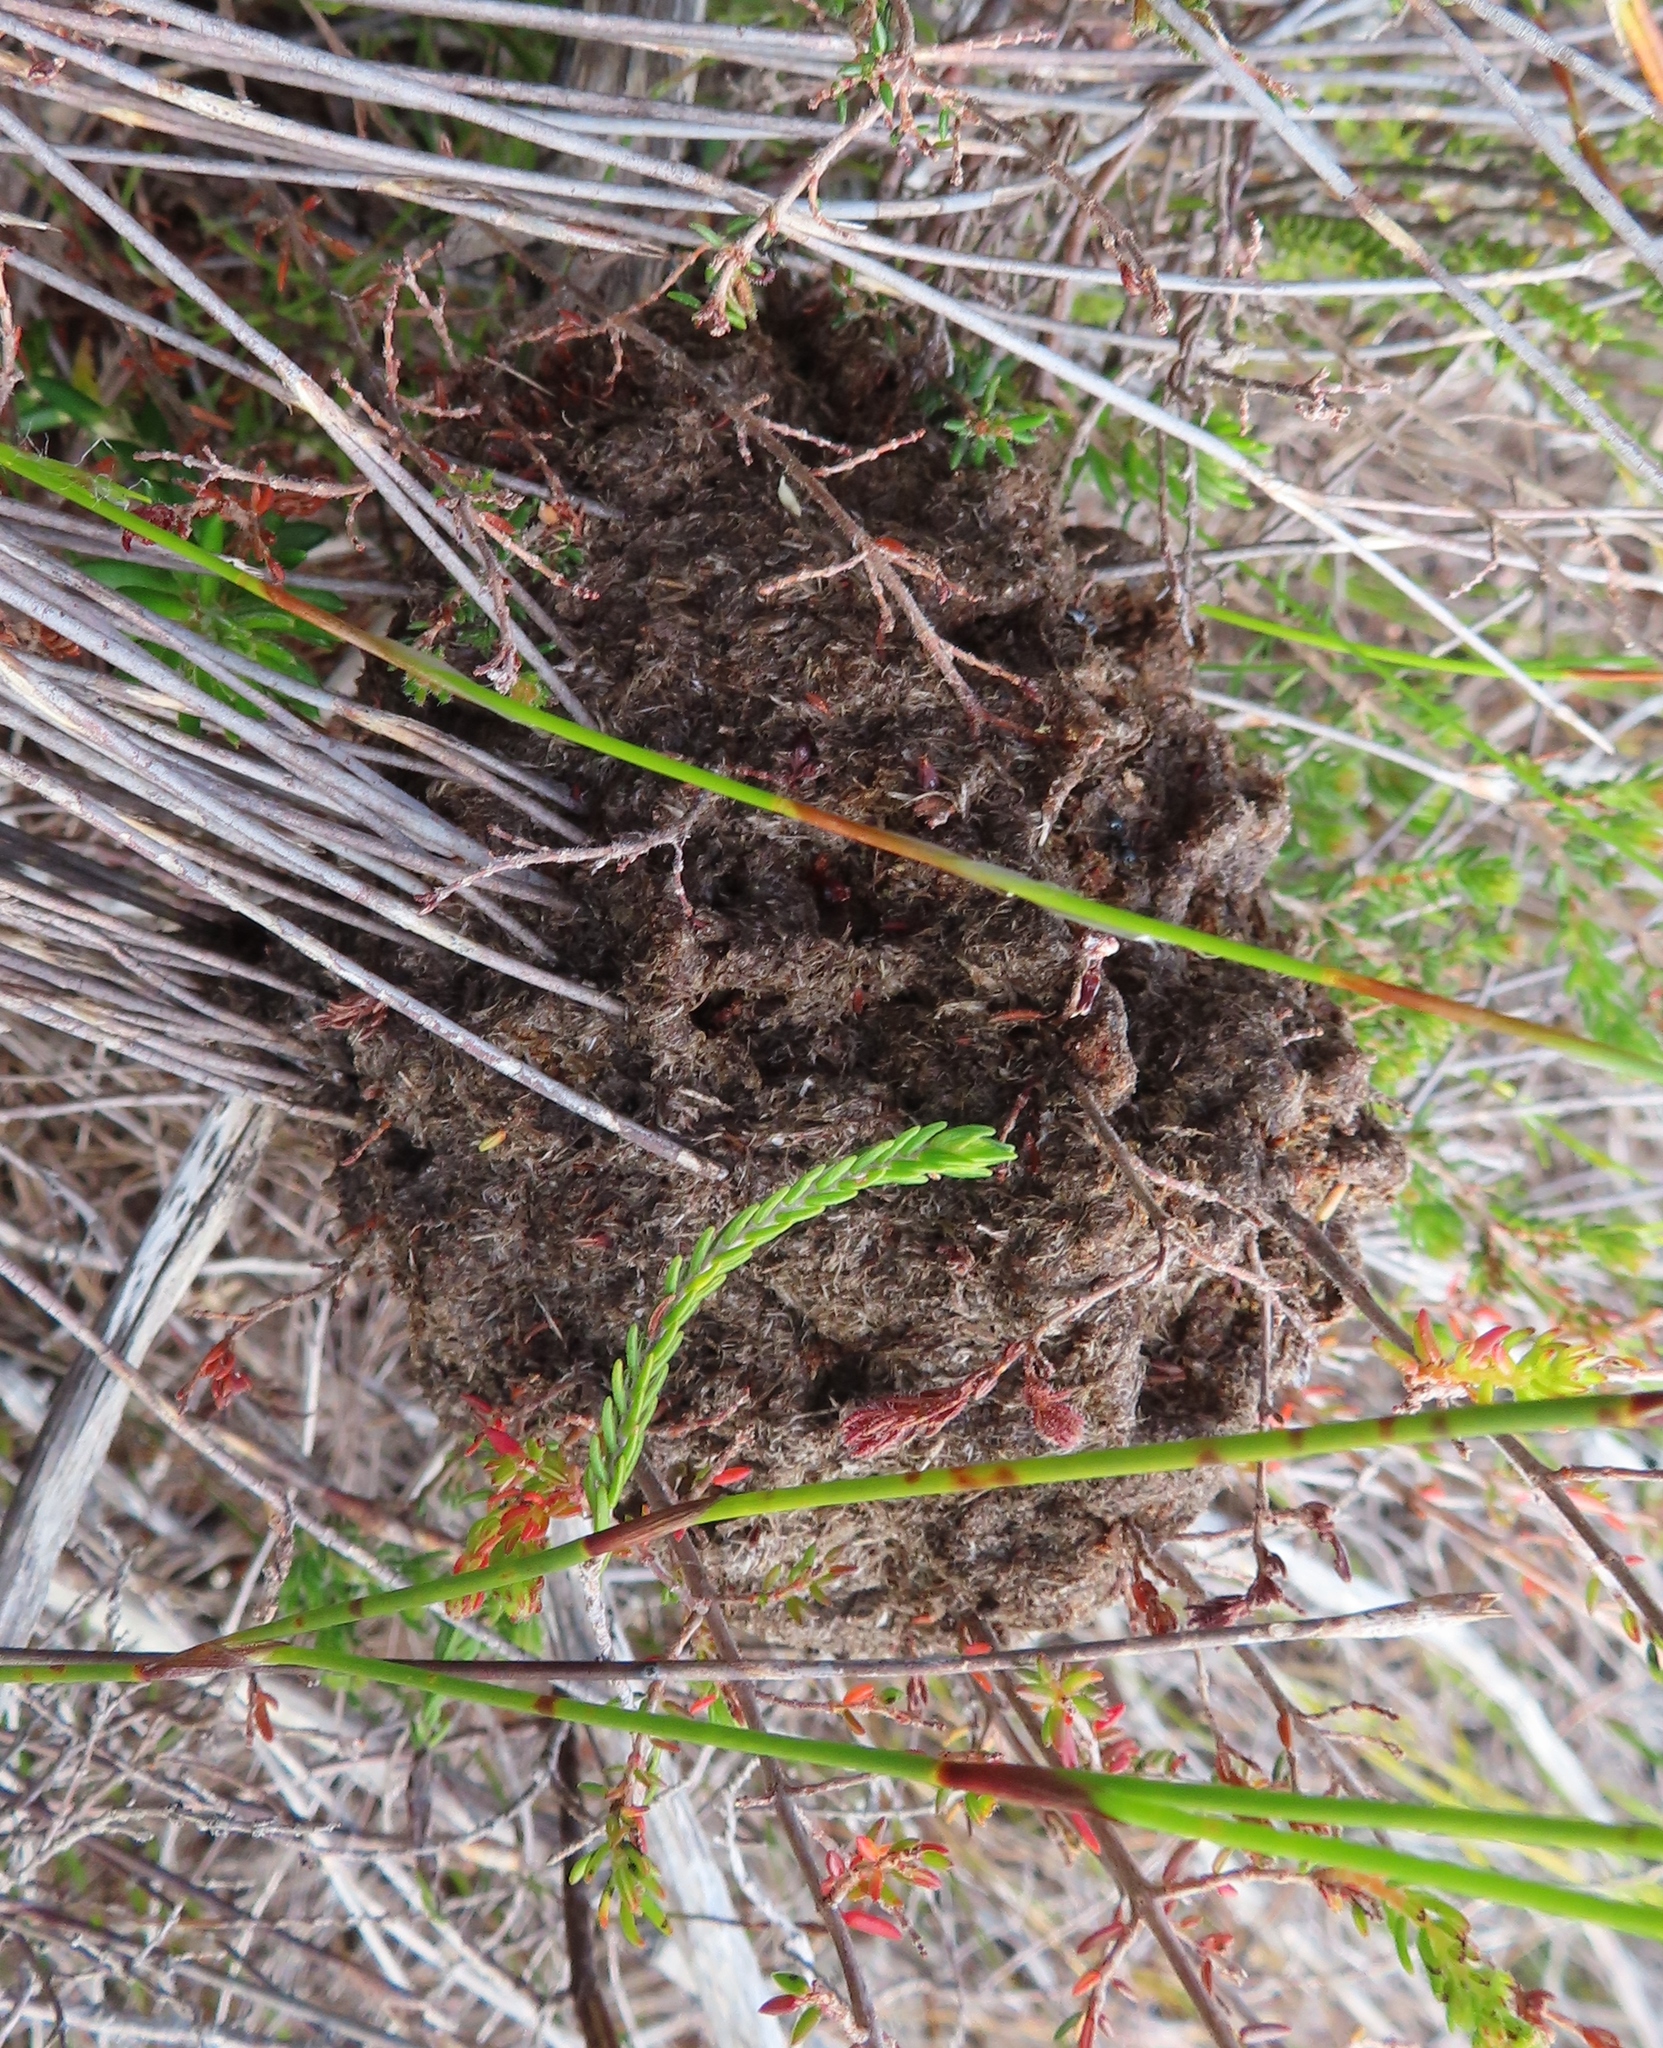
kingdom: Animalia
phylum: Arthropoda
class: Insecta
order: Hymenoptera
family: Formicidae
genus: Crematogaster
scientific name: Crematogaster peringueyi
